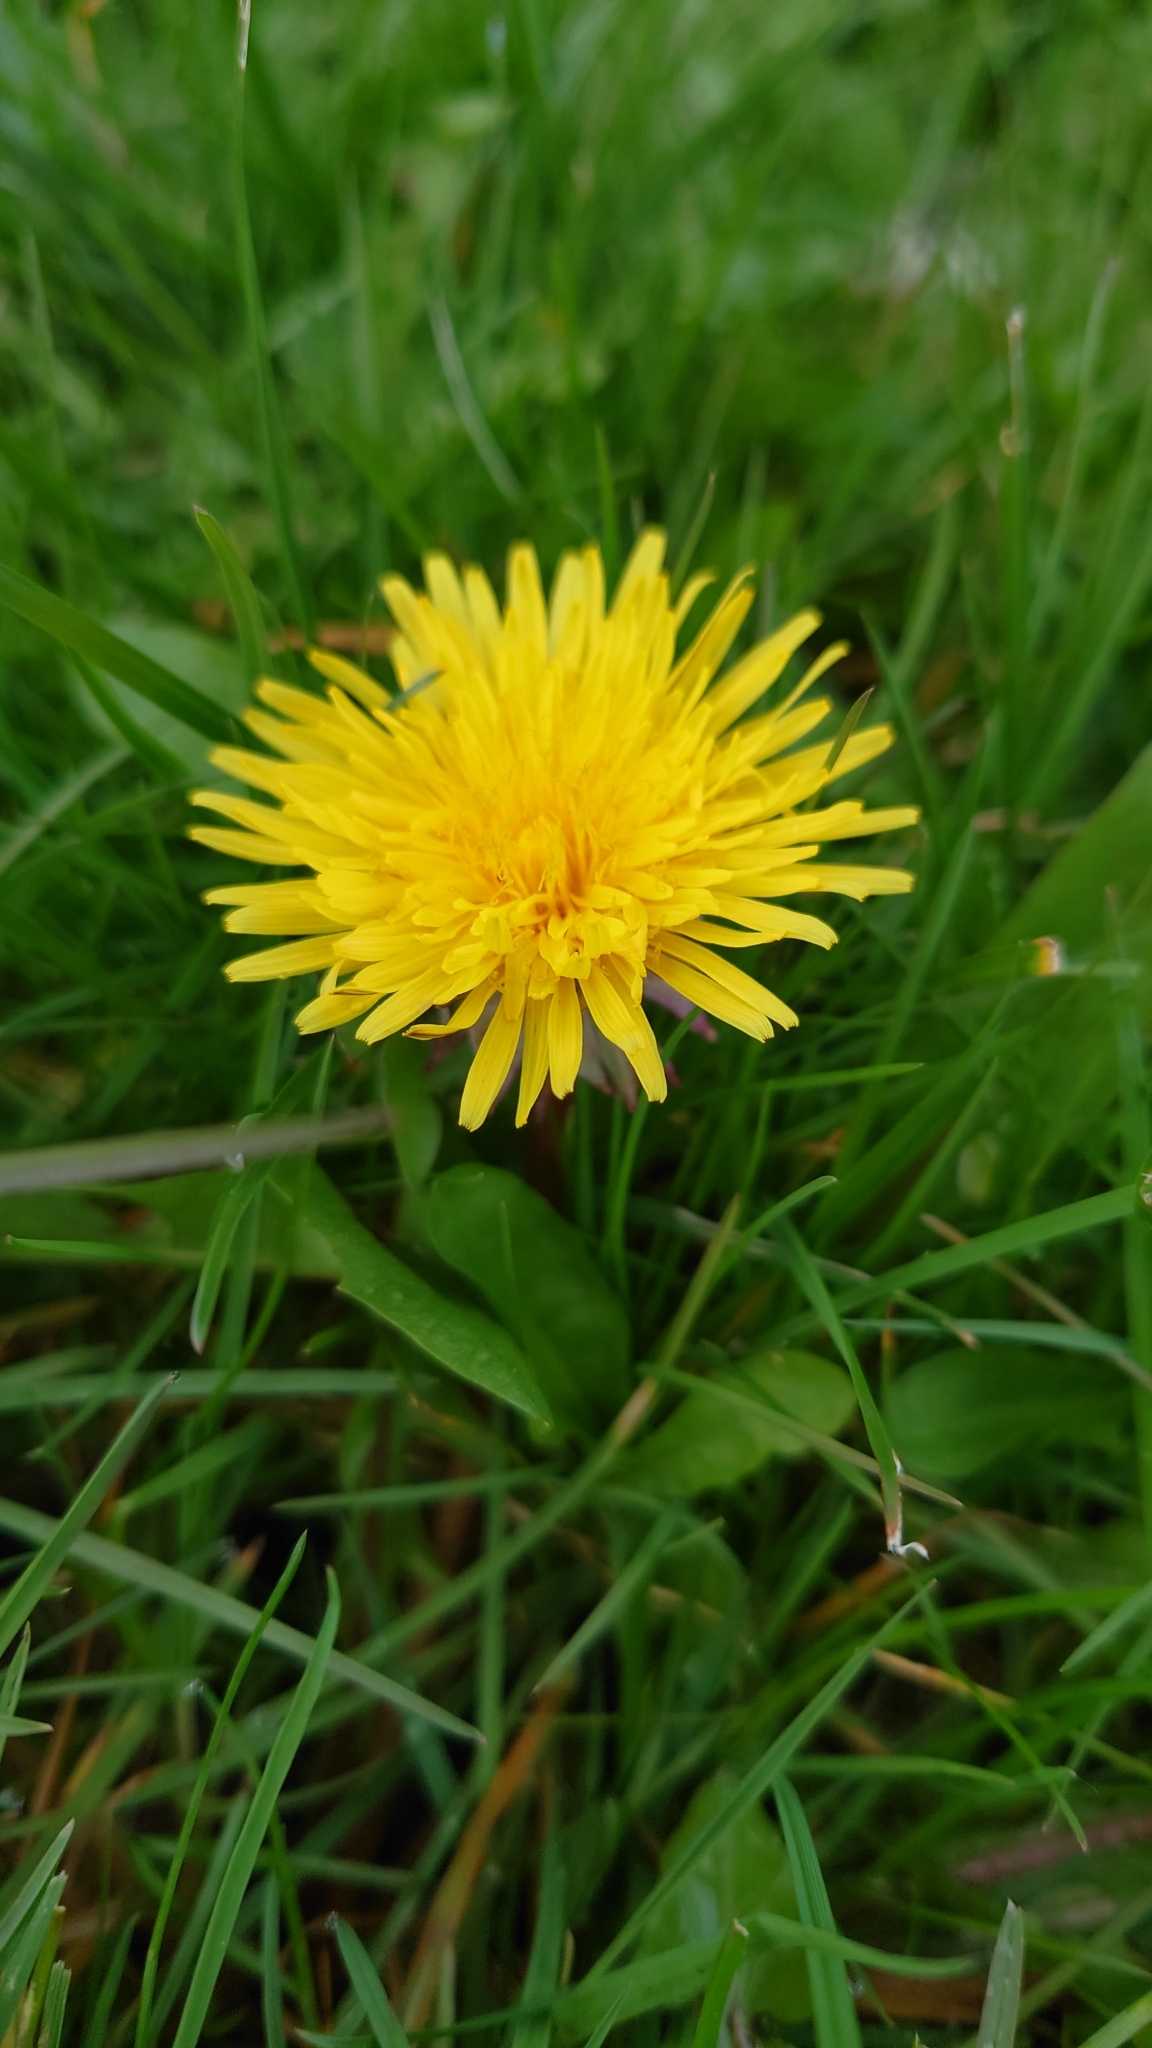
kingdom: Plantae
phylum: Tracheophyta
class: Magnoliopsida
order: Asterales
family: Asteraceae
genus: Taraxacum
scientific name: Taraxacum officinale
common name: Common dandelion
